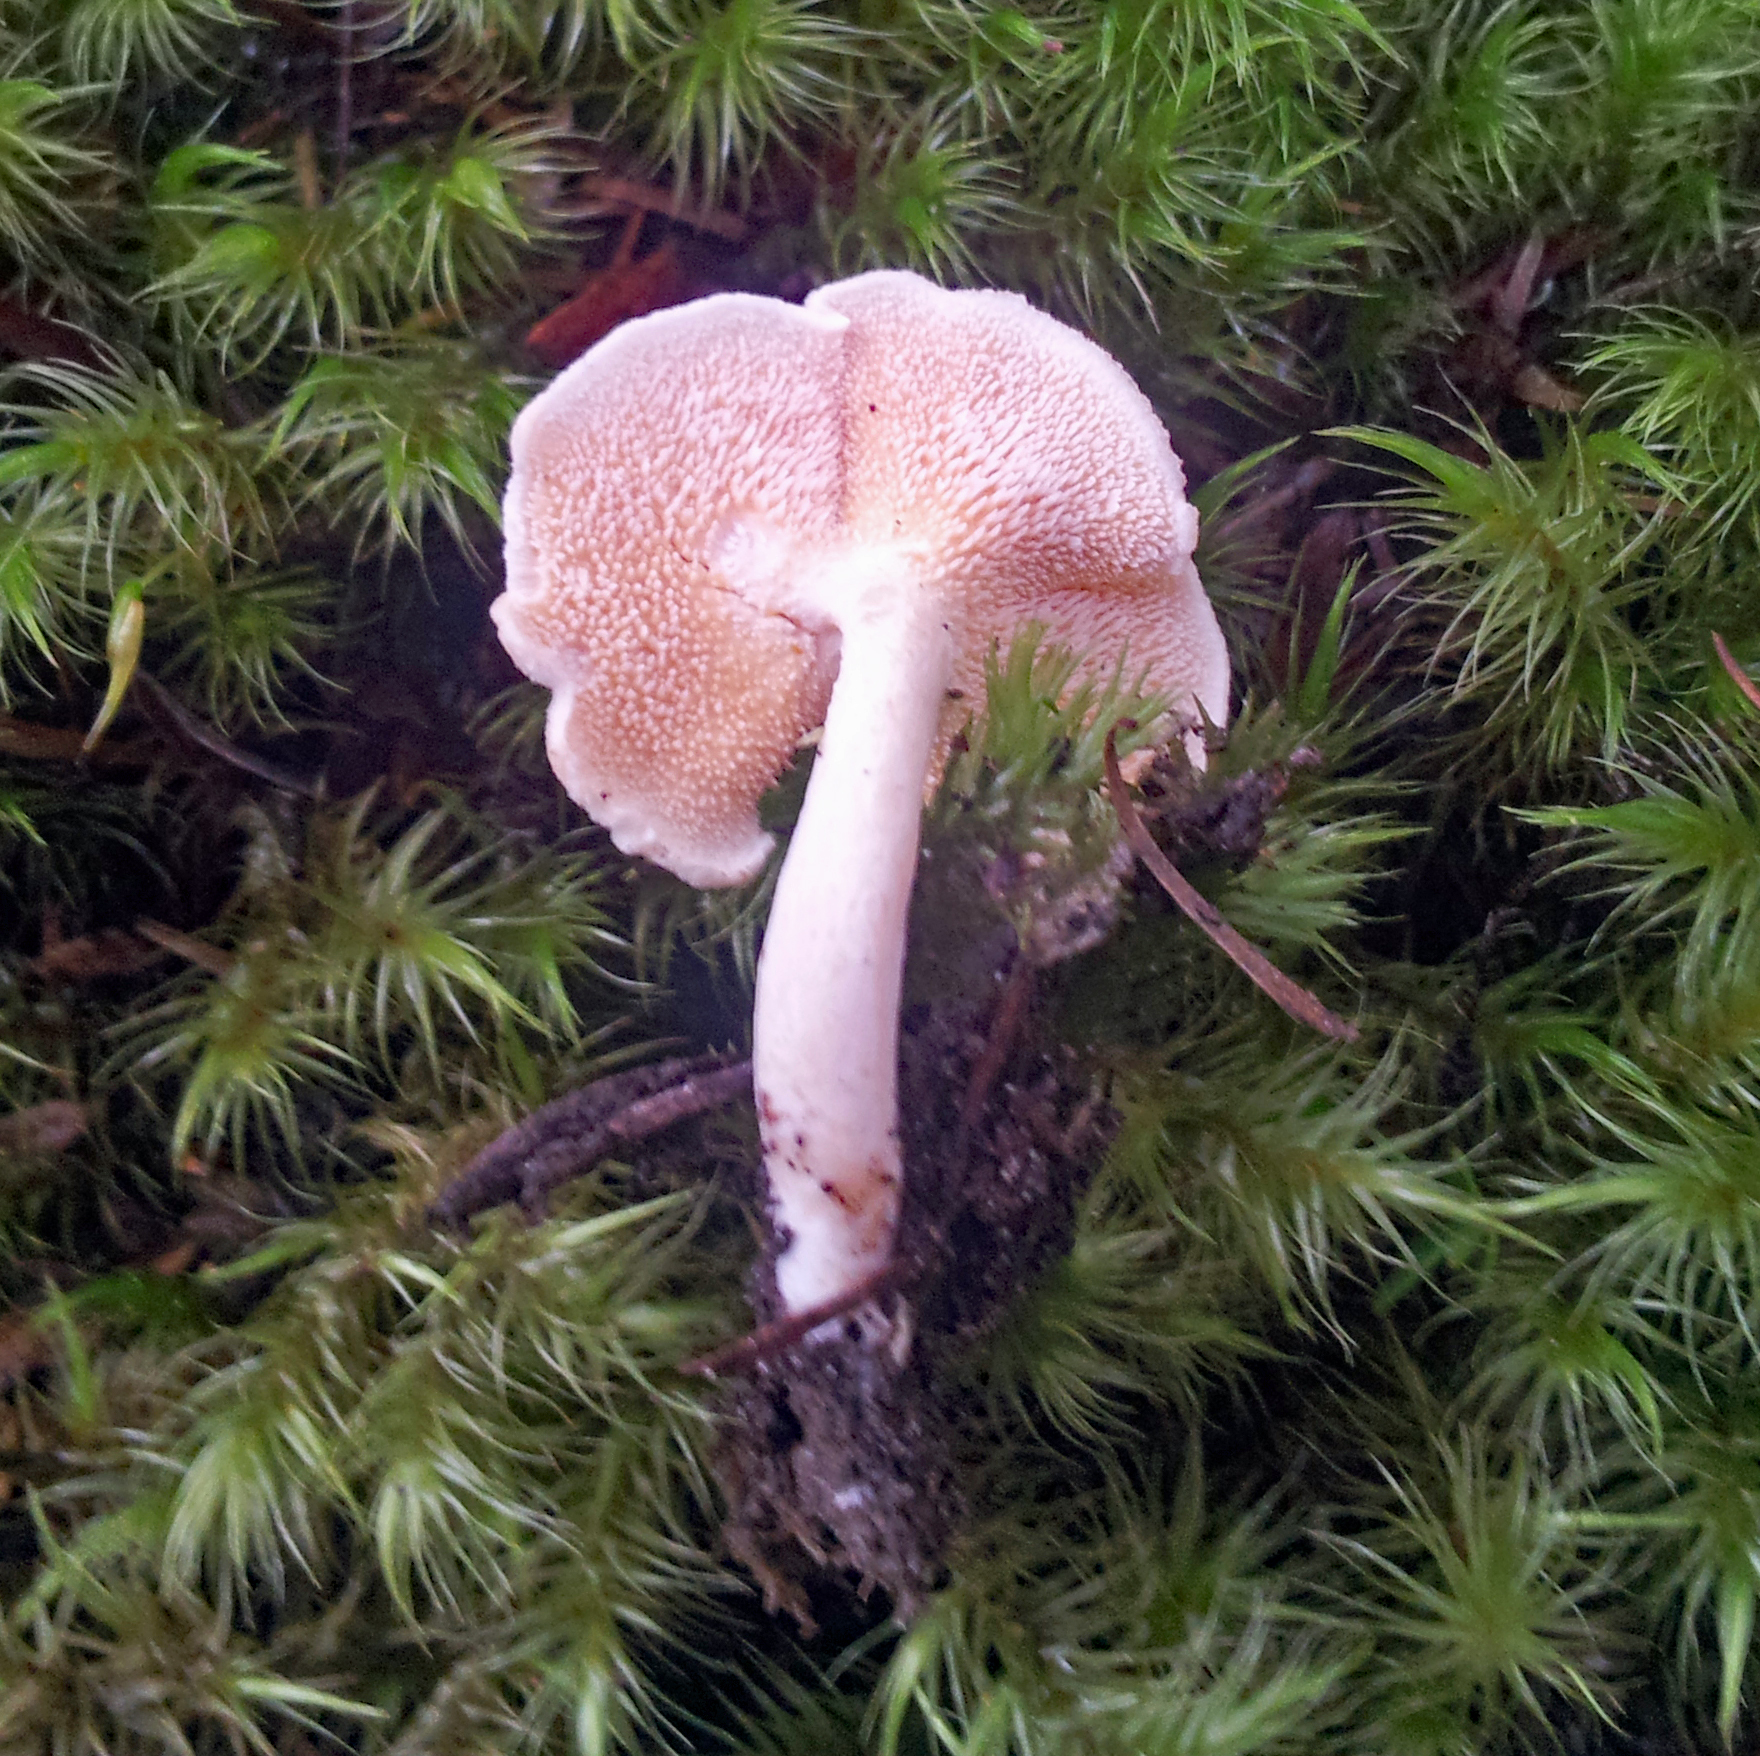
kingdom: Fungi
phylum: Basidiomycota
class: Agaricomycetes
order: Cantharellales
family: Hydnaceae
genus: Hydnum
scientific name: Hydnum
